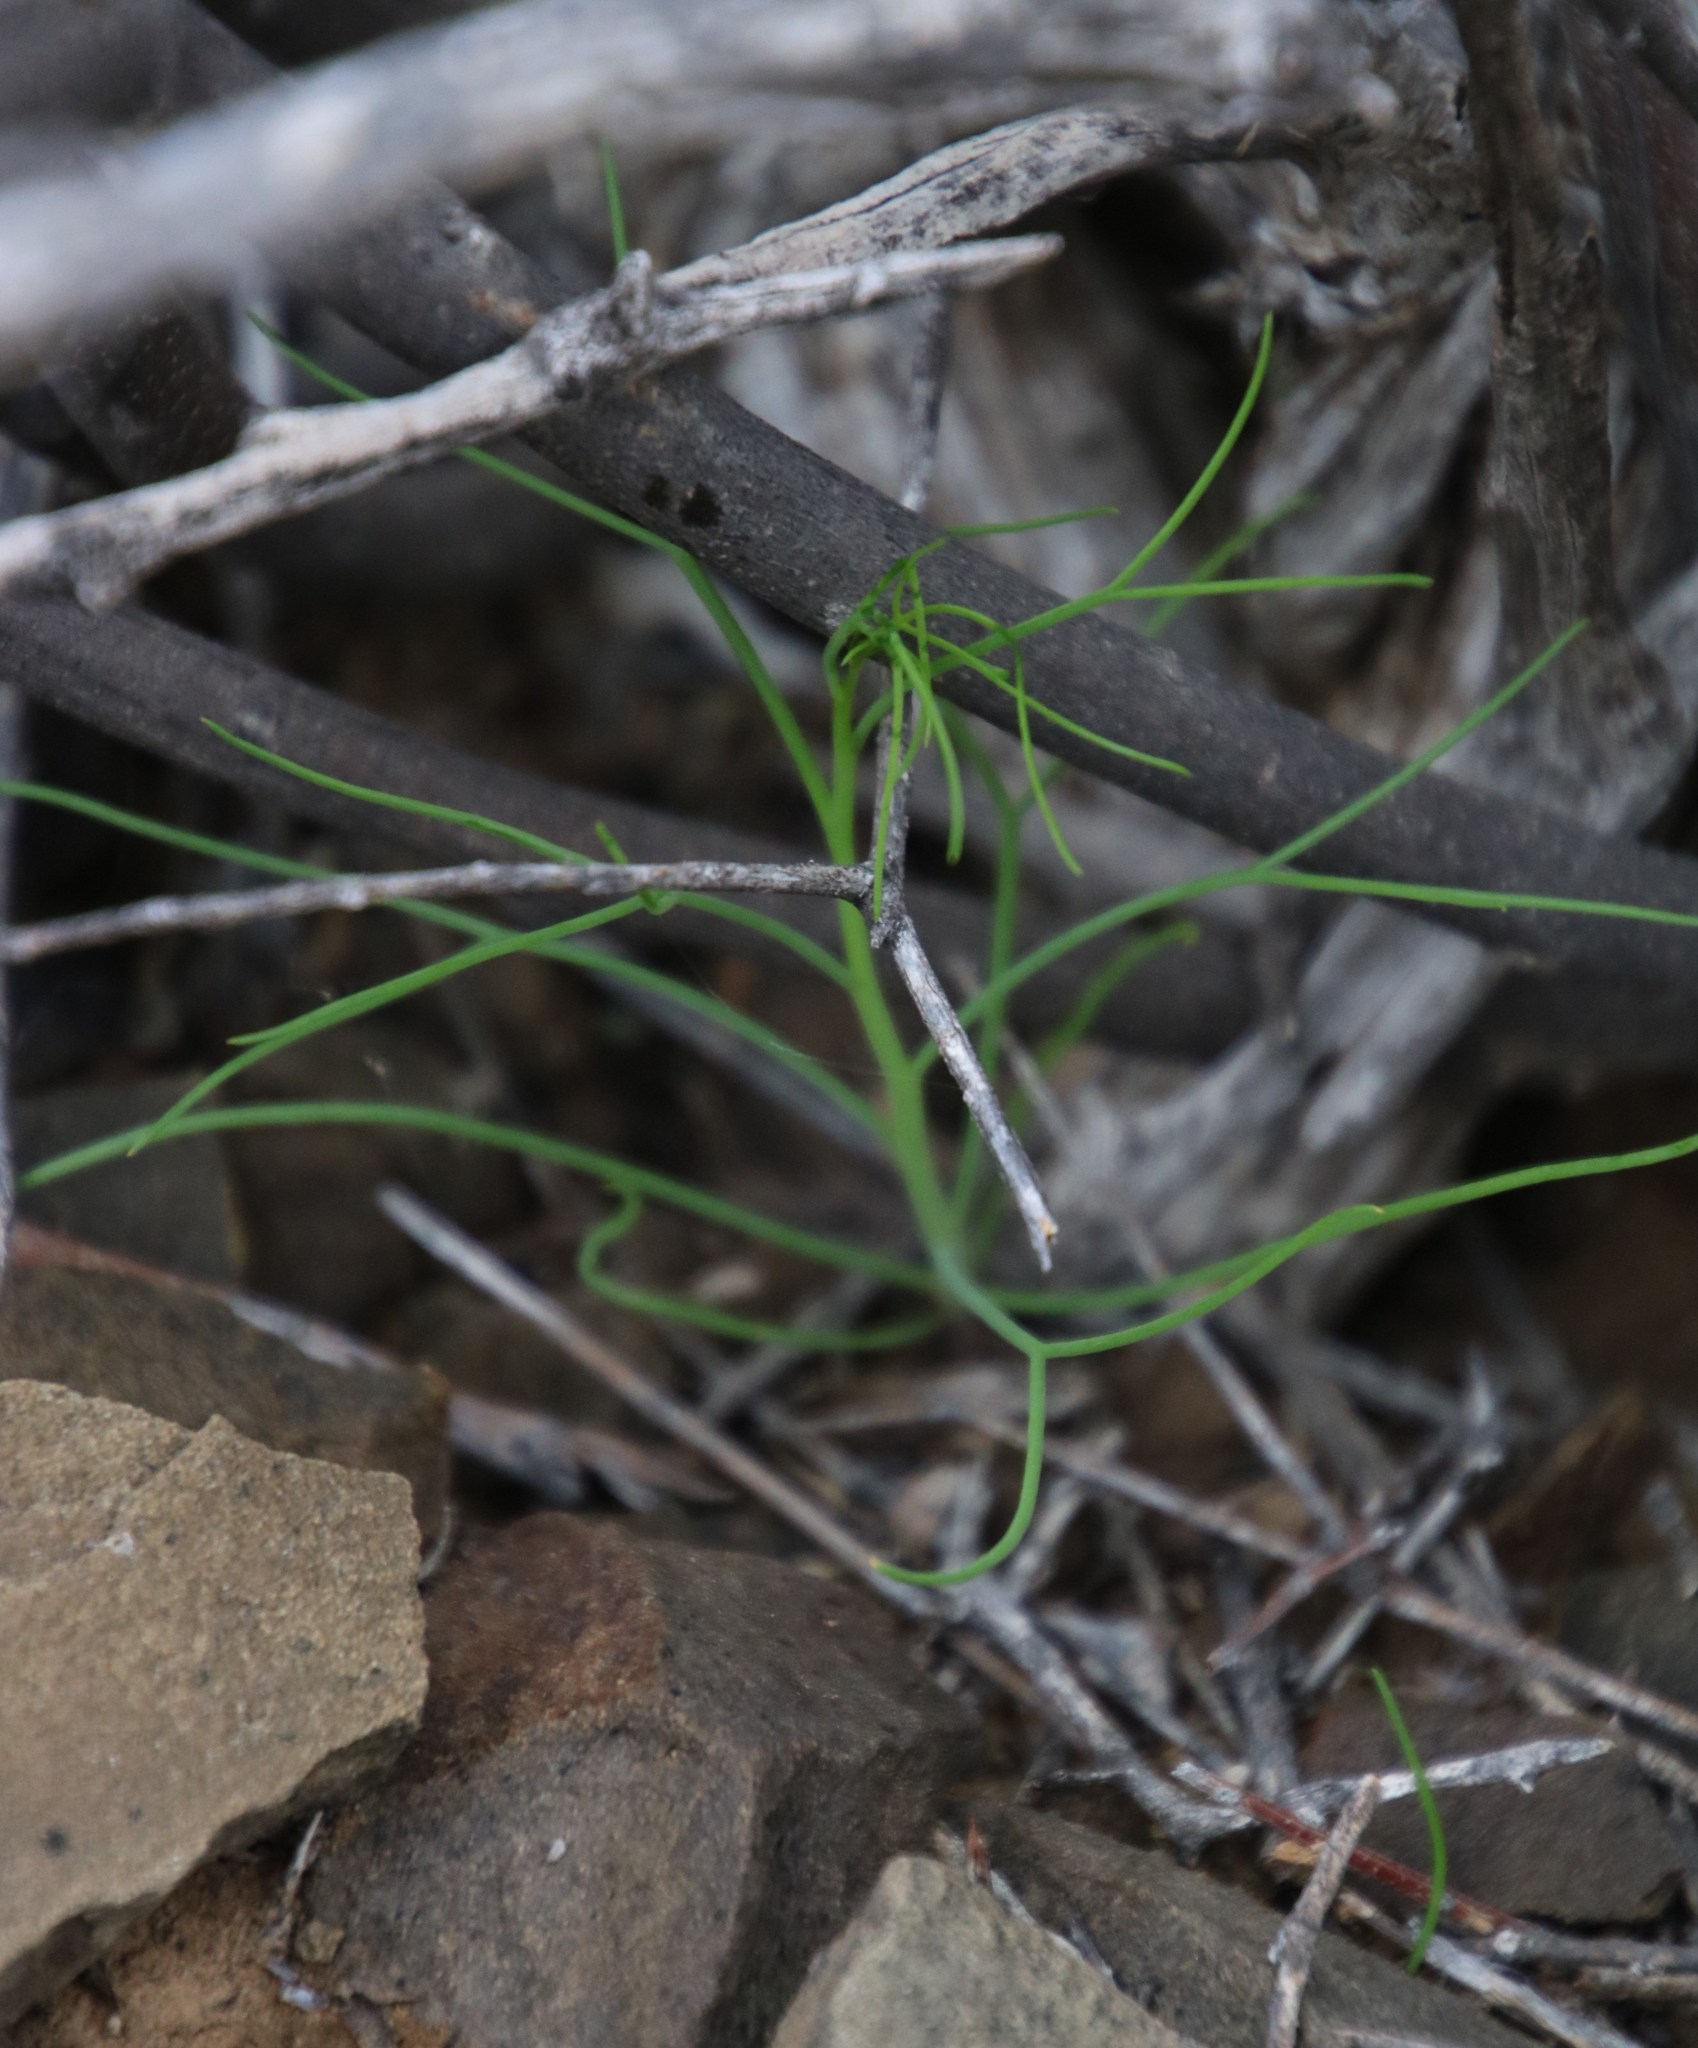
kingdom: Plantae
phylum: Tracheophyta
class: Magnoliopsida
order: Brassicales
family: Brassicaceae
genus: Heliophila
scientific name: Heliophila trifurca
